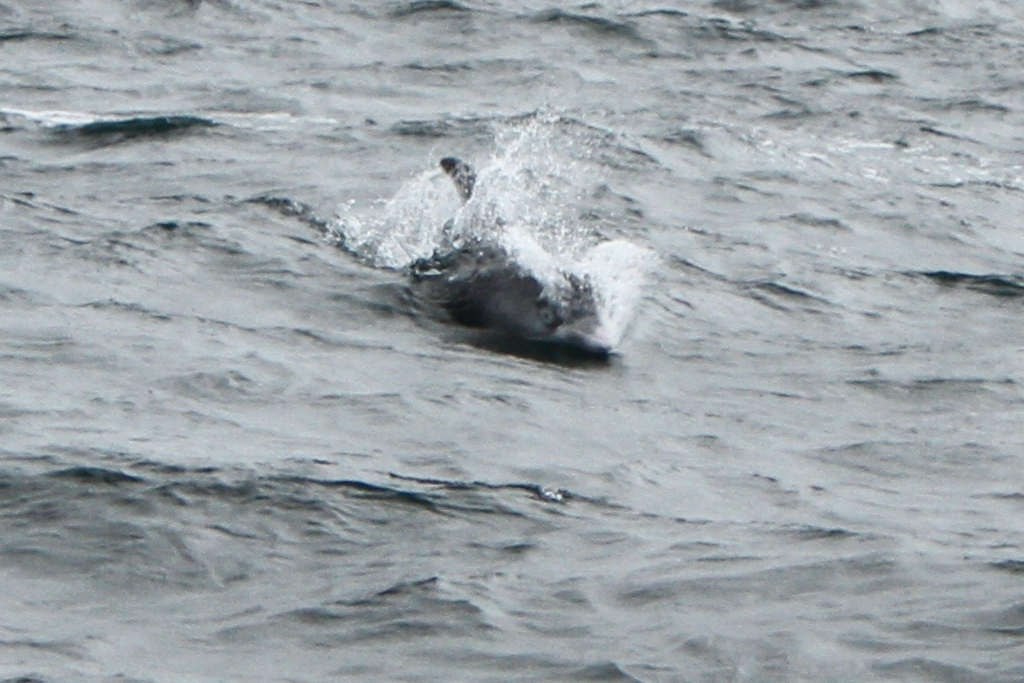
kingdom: Animalia
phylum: Chordata
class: Mammalia
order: Cetacea
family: Delphinidae
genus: Lagenorhynchus
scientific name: Lagenorhynchus albirostris
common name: White-beaked dolphin
